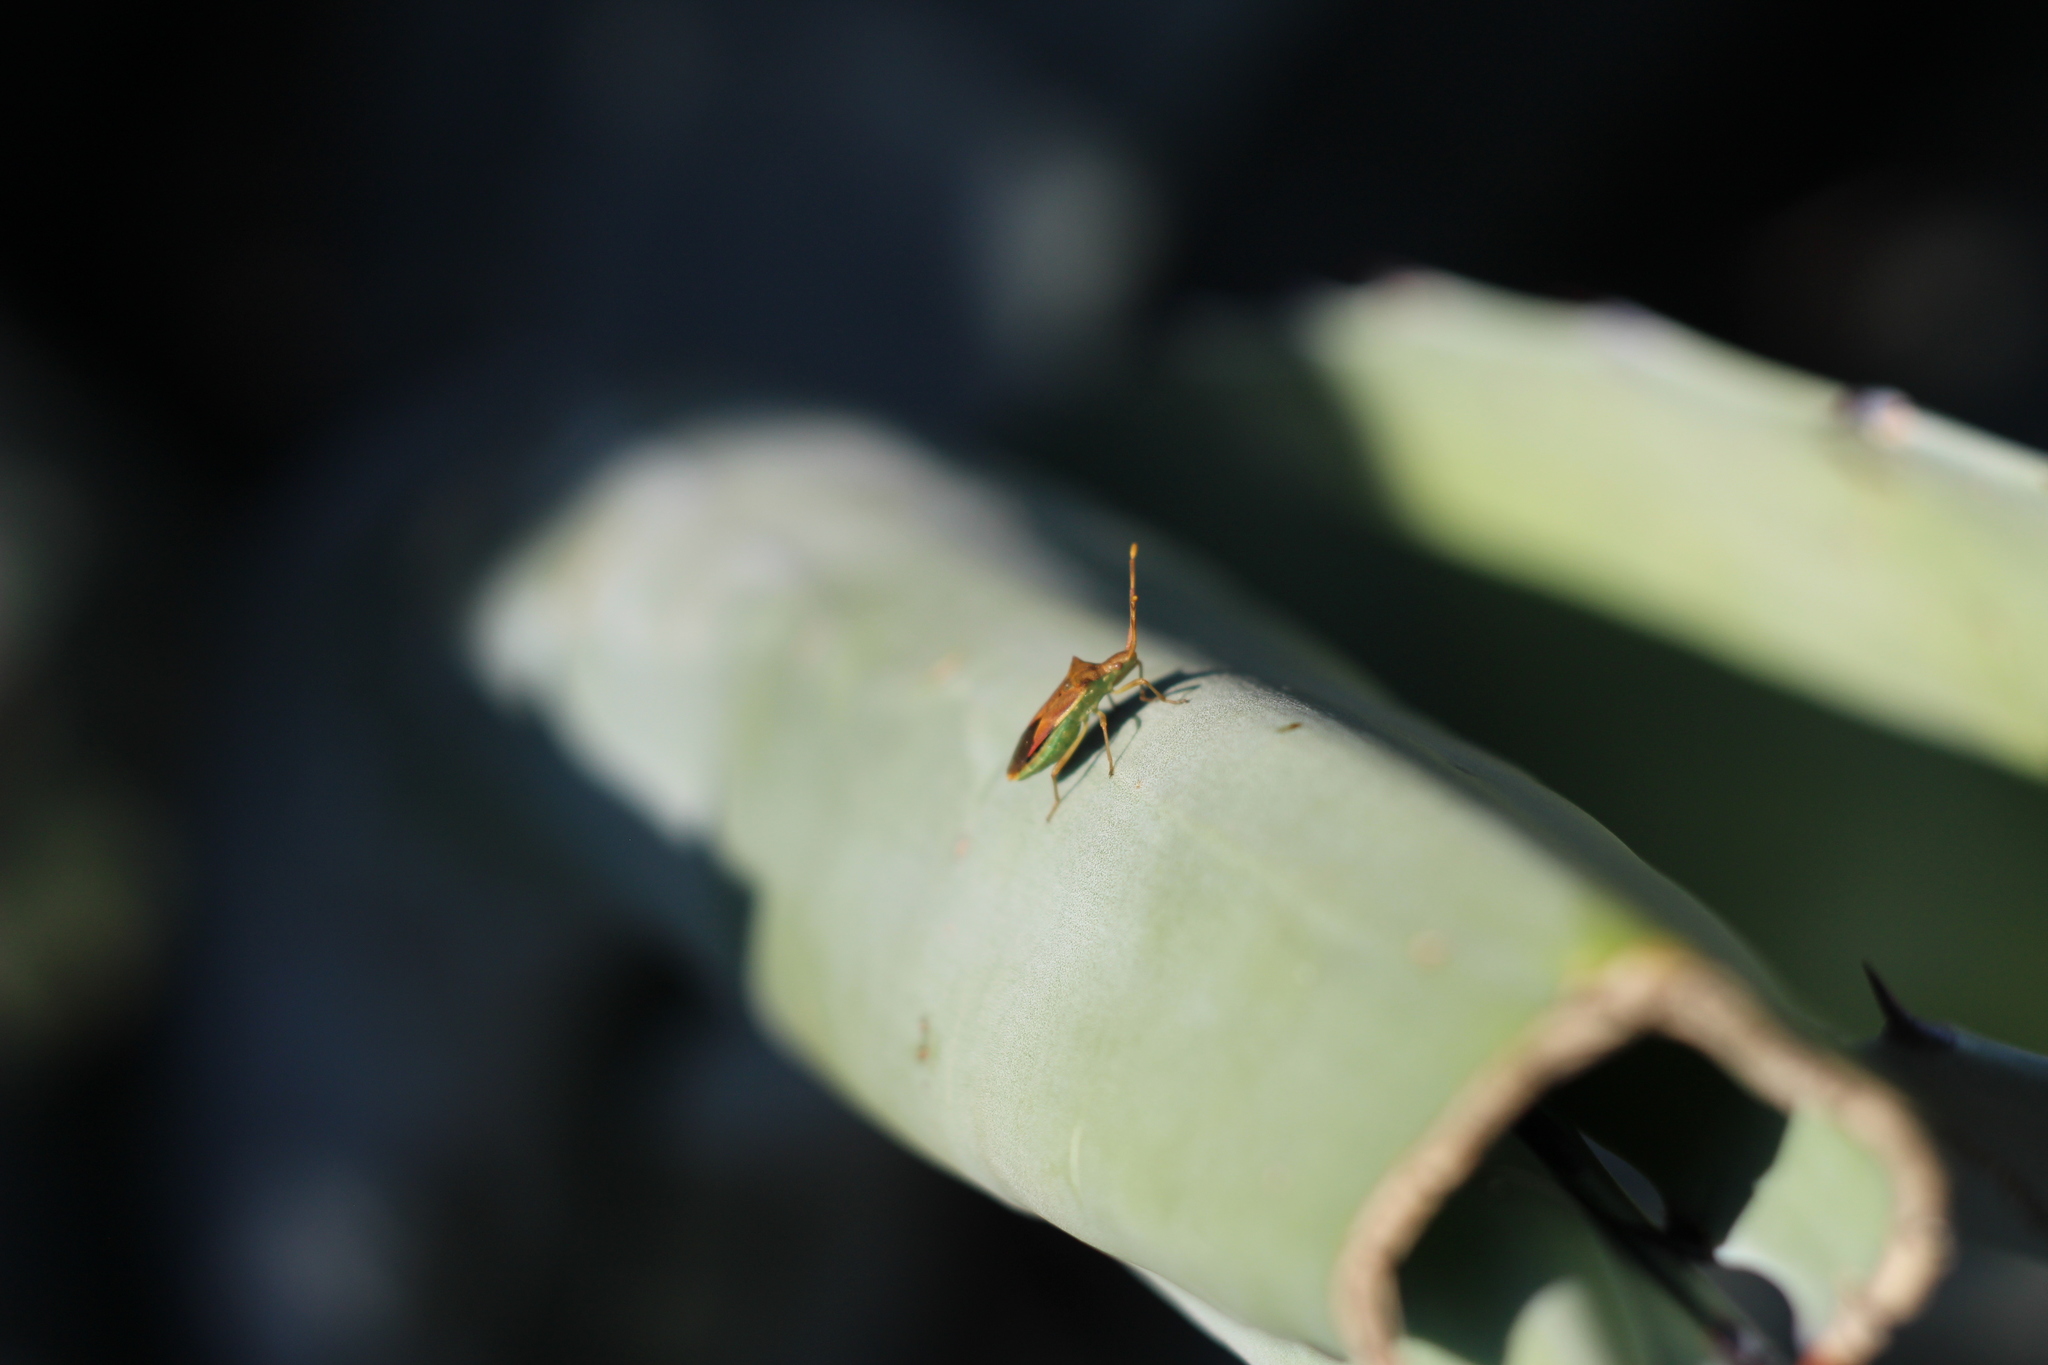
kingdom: Animalia
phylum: Arthropoda
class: Insecta
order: Hemiptera
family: Coreidae
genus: Gonocerus
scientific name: Gonocerus juniperi
